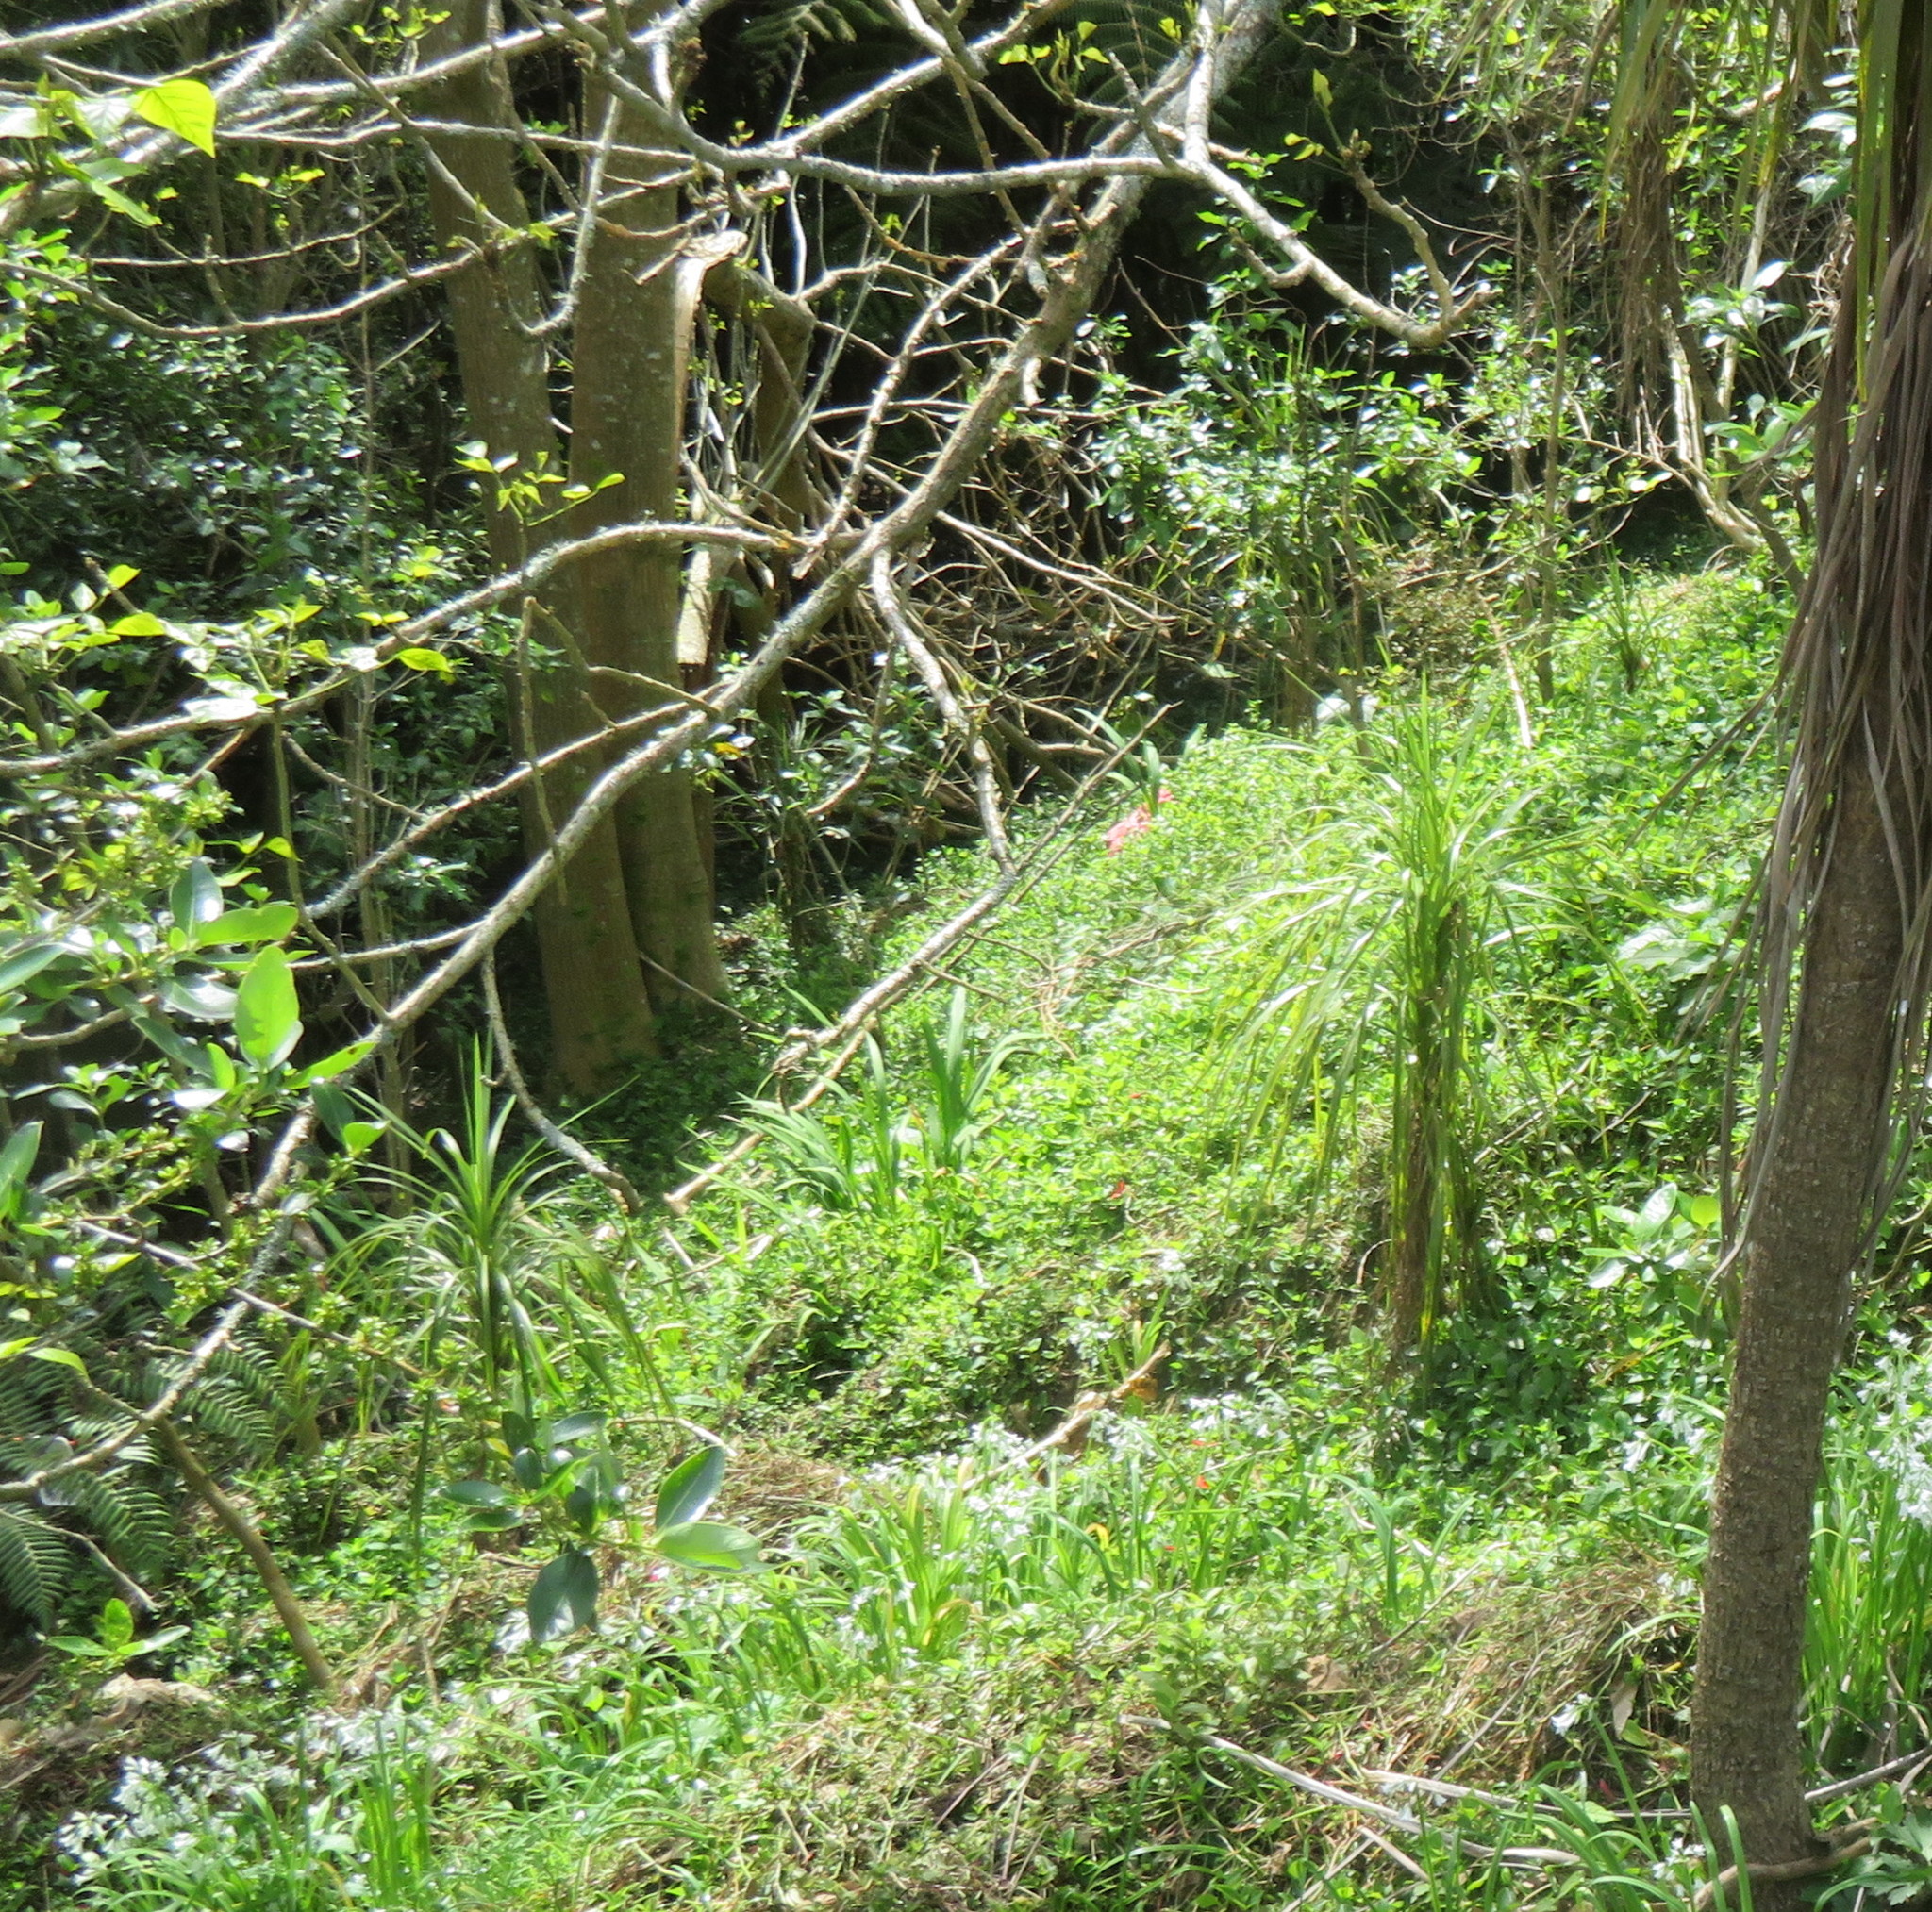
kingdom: Plantae
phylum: Tracheophyta
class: Liliopsida
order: Asparagales
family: Asparagaceae
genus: Cordyline
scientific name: Cordyline australis
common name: Cabbage-palm
